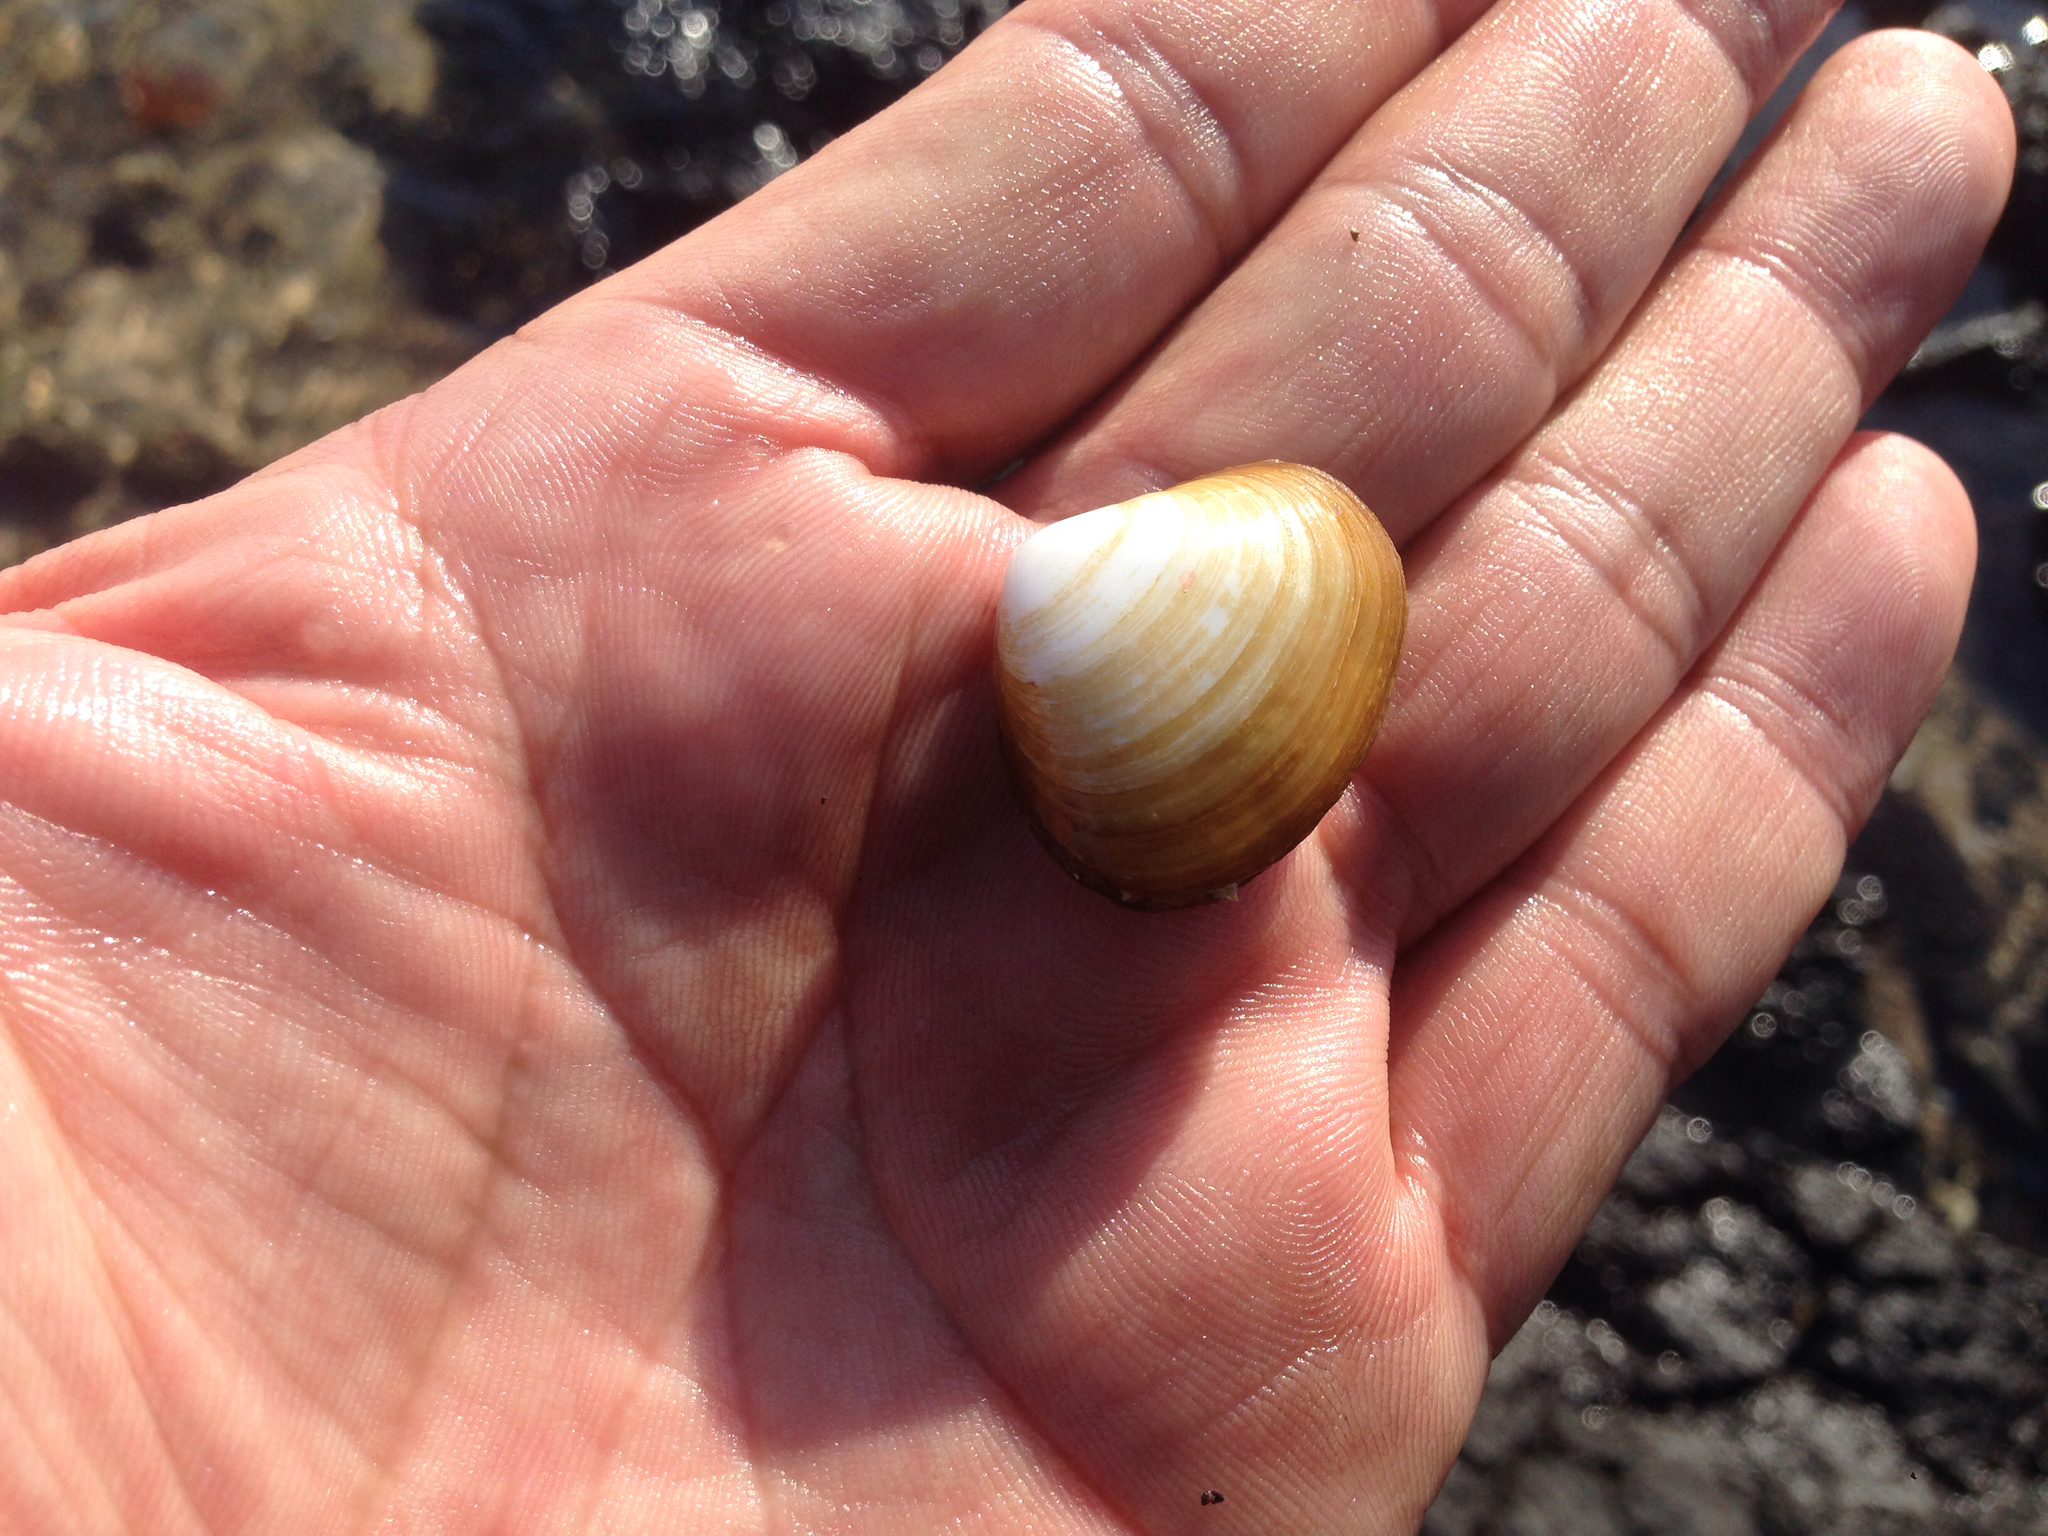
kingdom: Animalia
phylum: Mollusca
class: Bivalvia
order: Venerida
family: Mesodesmatidae
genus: Coecella
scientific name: Coecella chinensis
